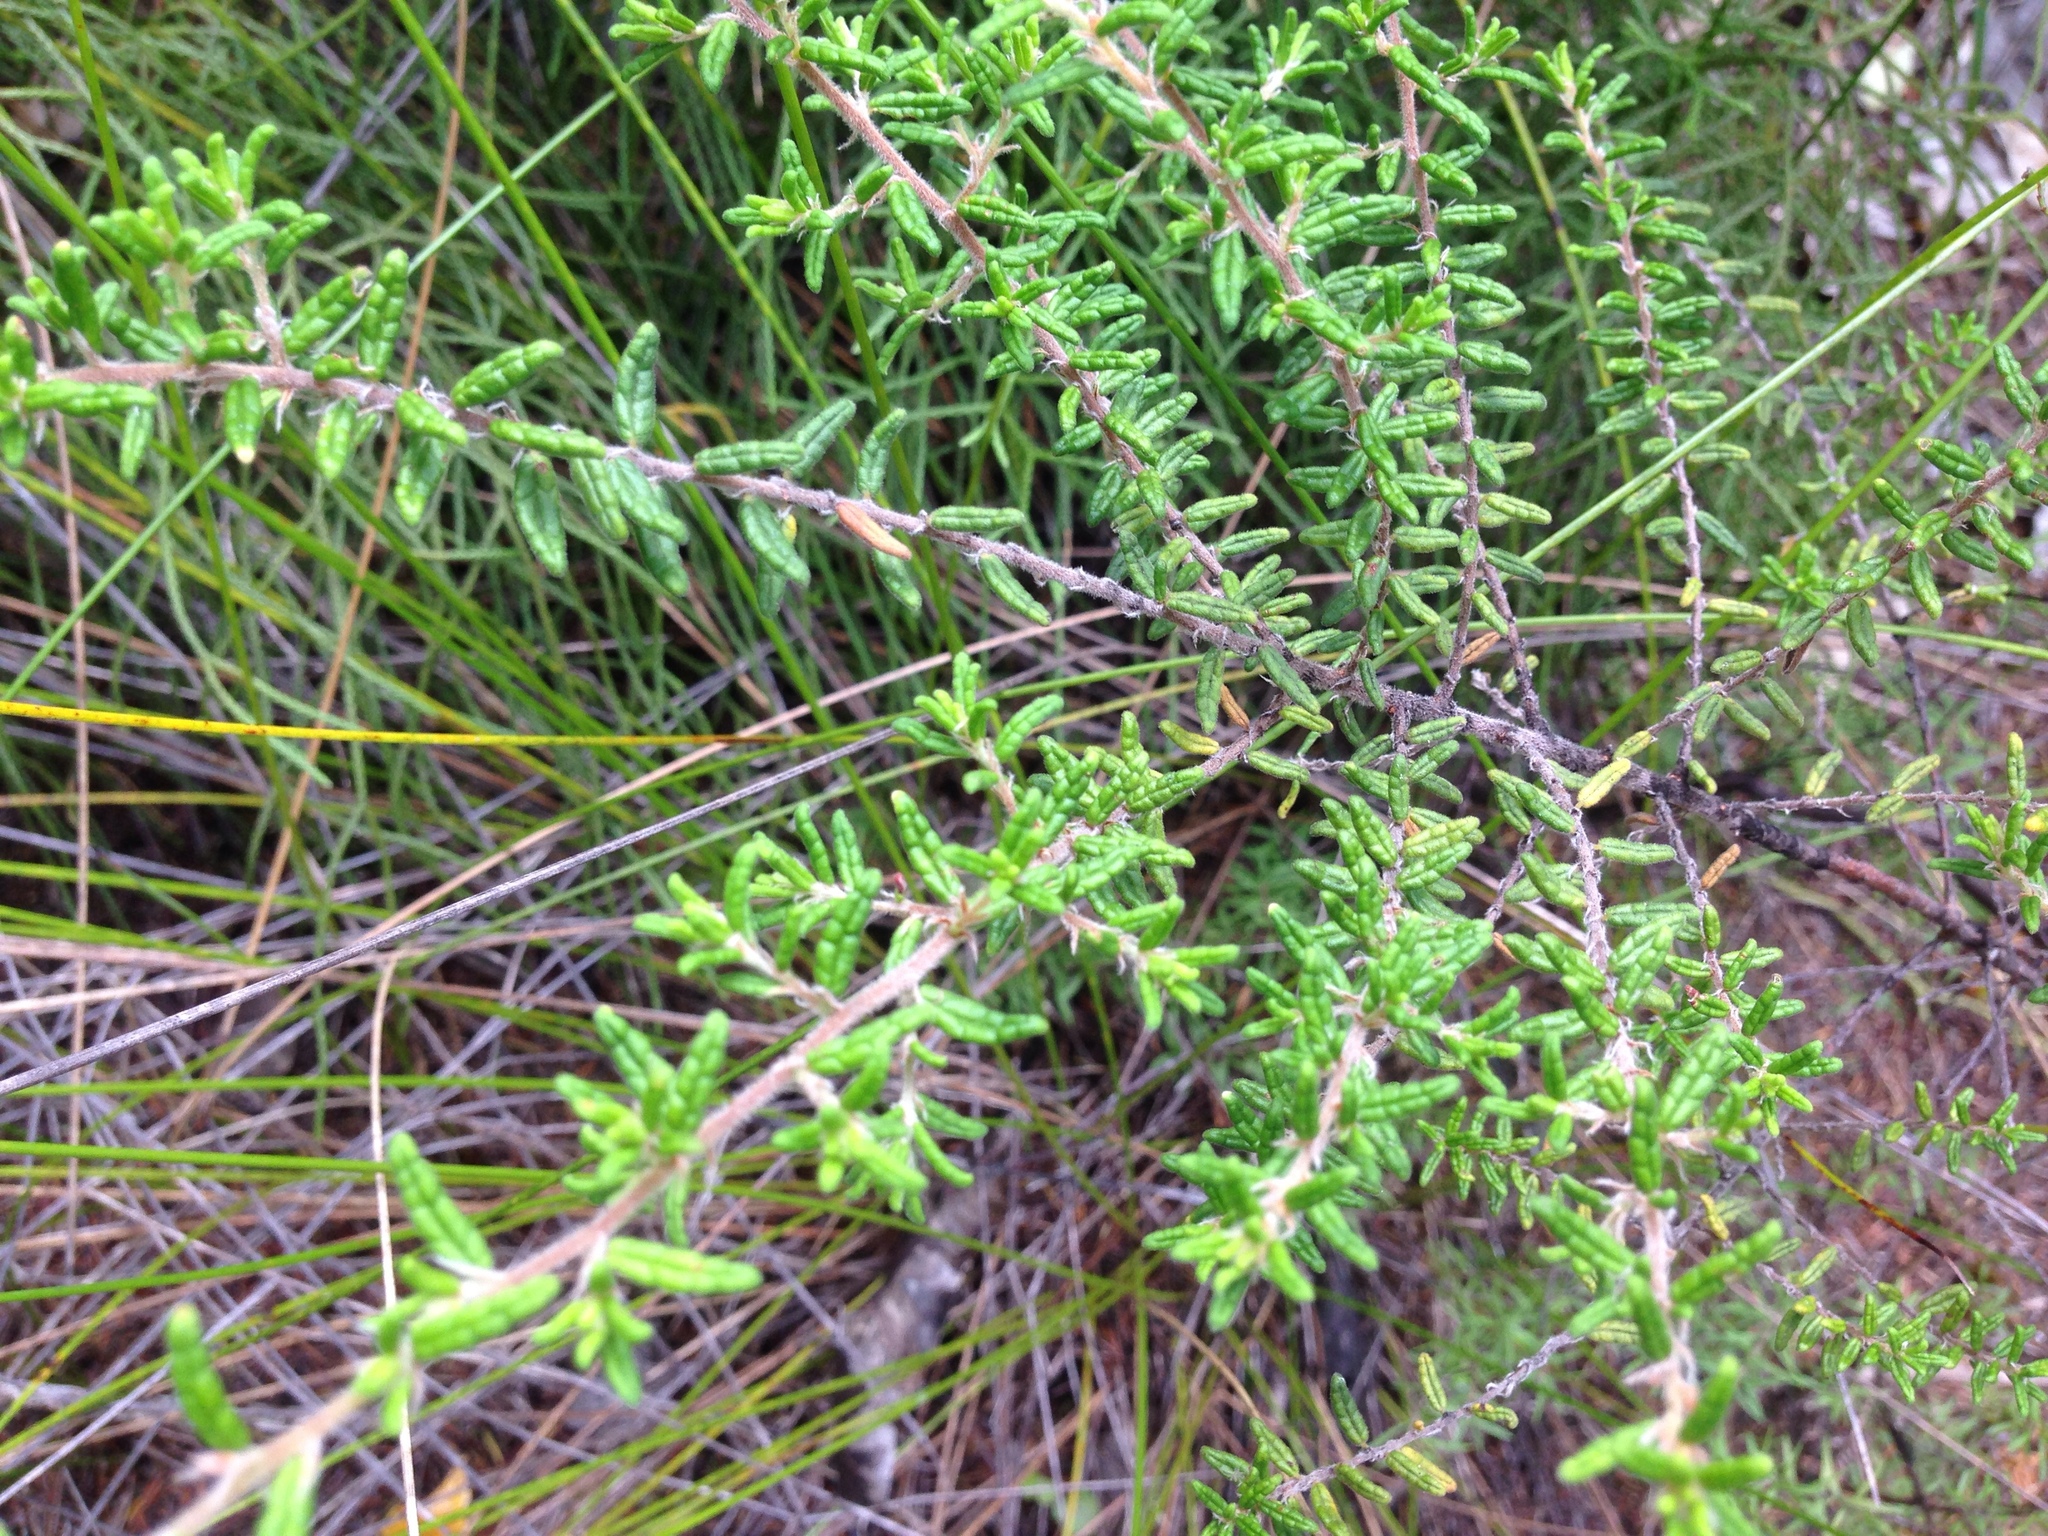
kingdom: Plantae
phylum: Tracheophyta
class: Magnoliopsida
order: Rosales
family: Rhamnaceae
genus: Pomaderris
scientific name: Pomaderris amoena
